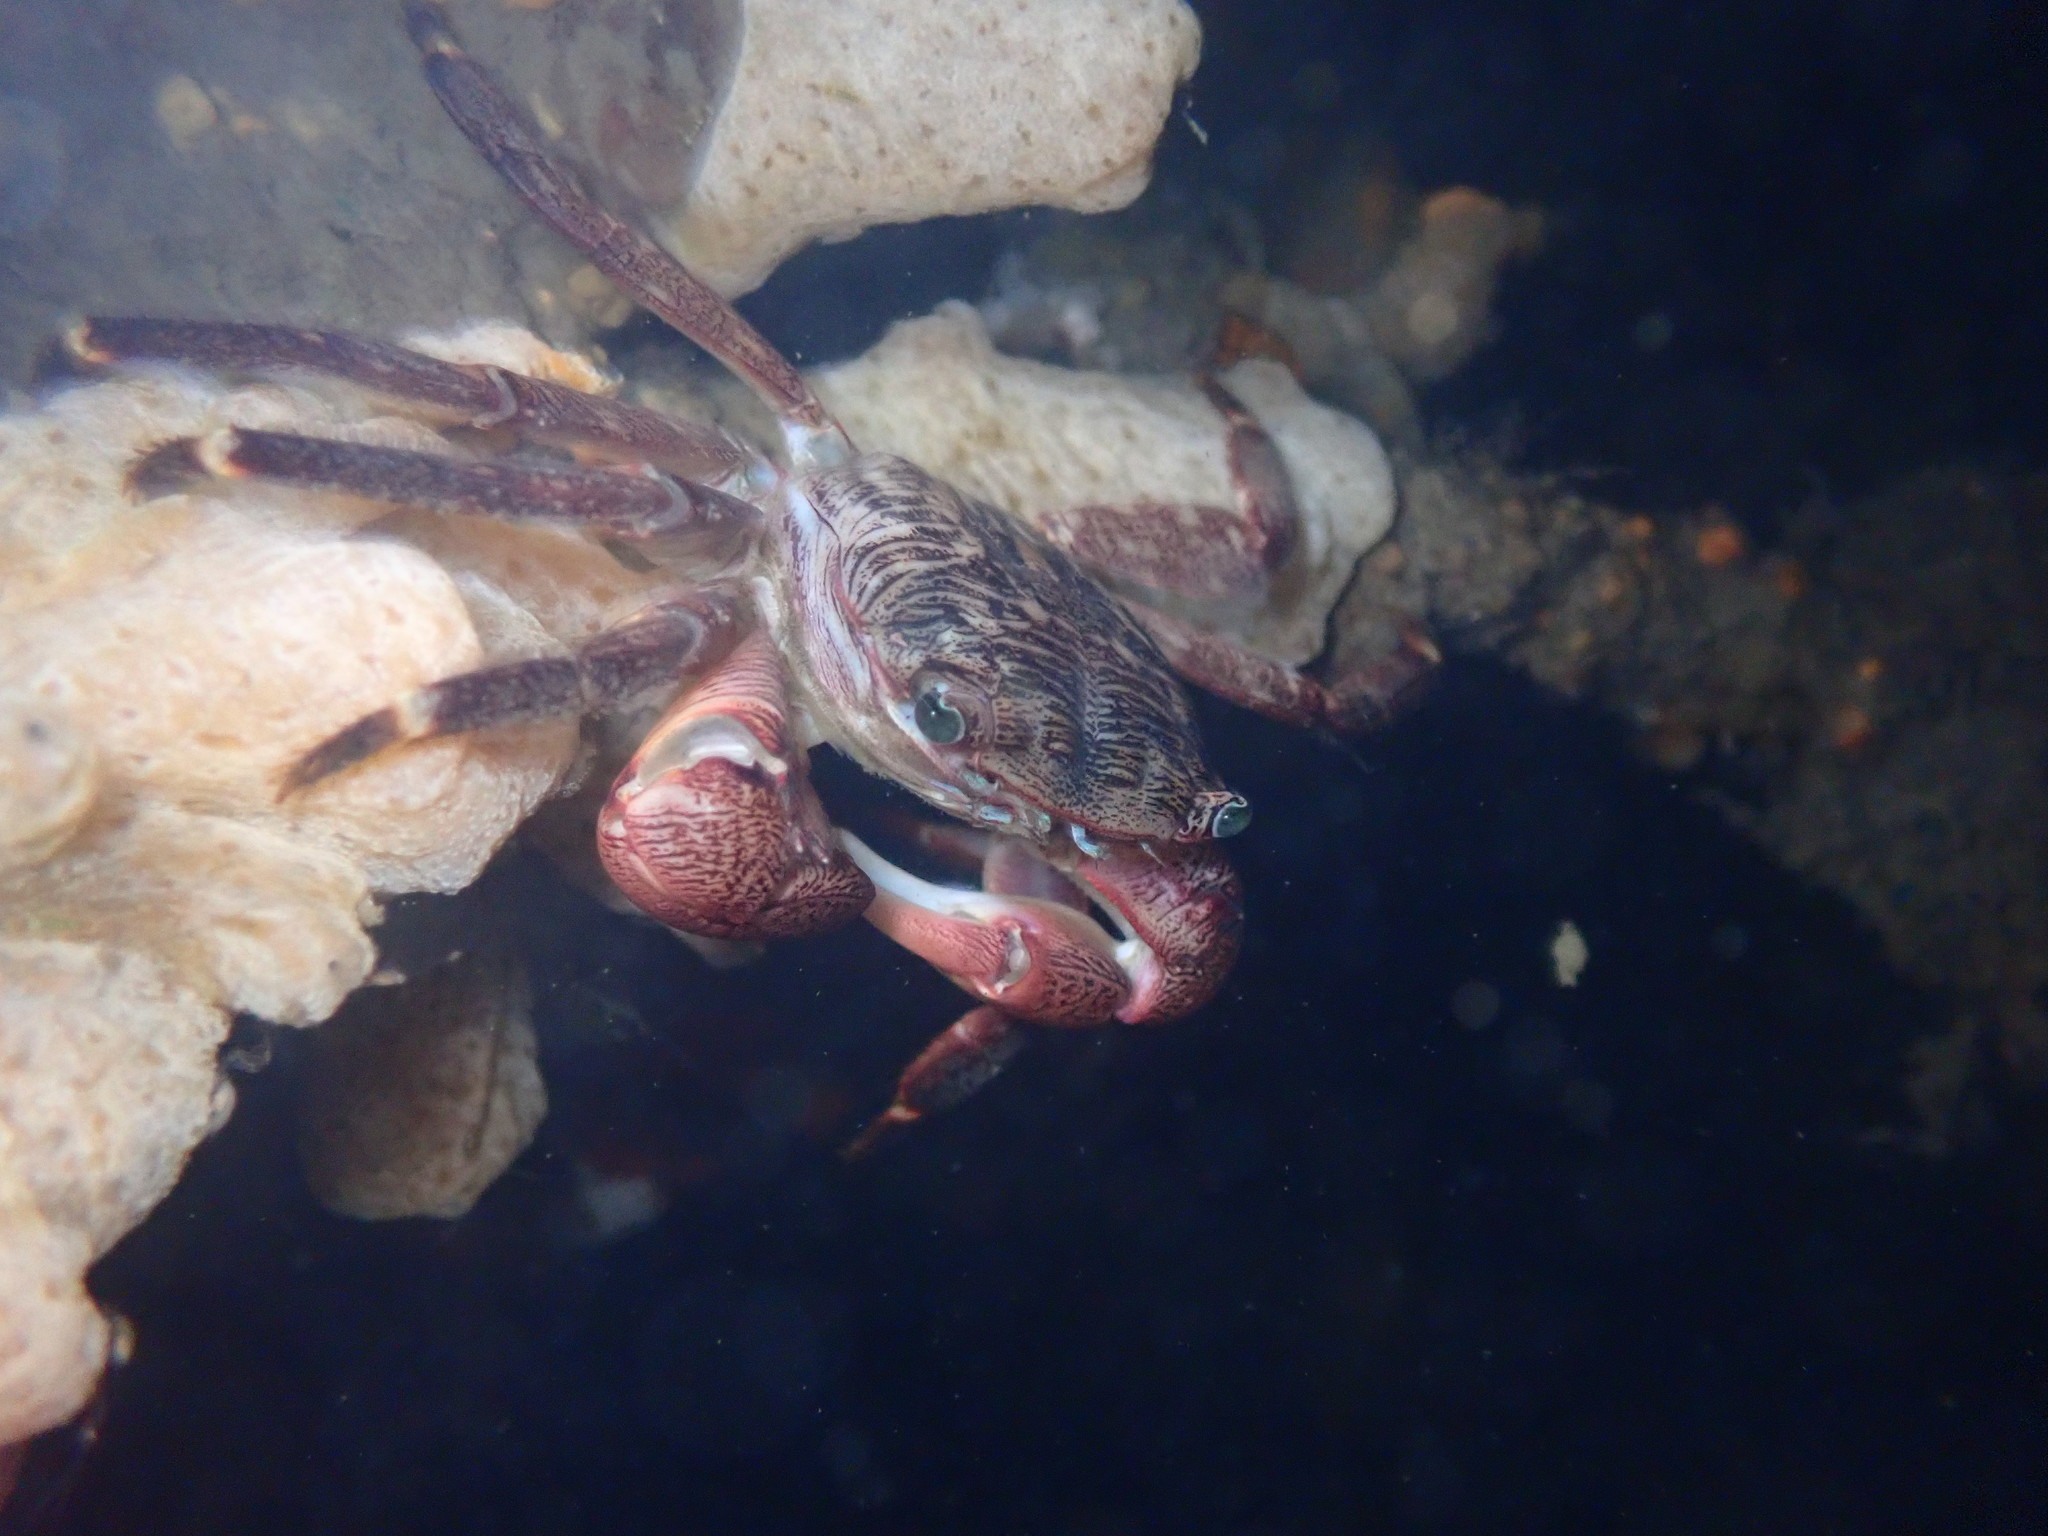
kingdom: Animalia
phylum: Arthropoda
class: Malacostraca
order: Decapoda
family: Grapsidae
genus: Pachygrapsus
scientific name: Pachygrapsus crassipes
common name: Striped shore crab
